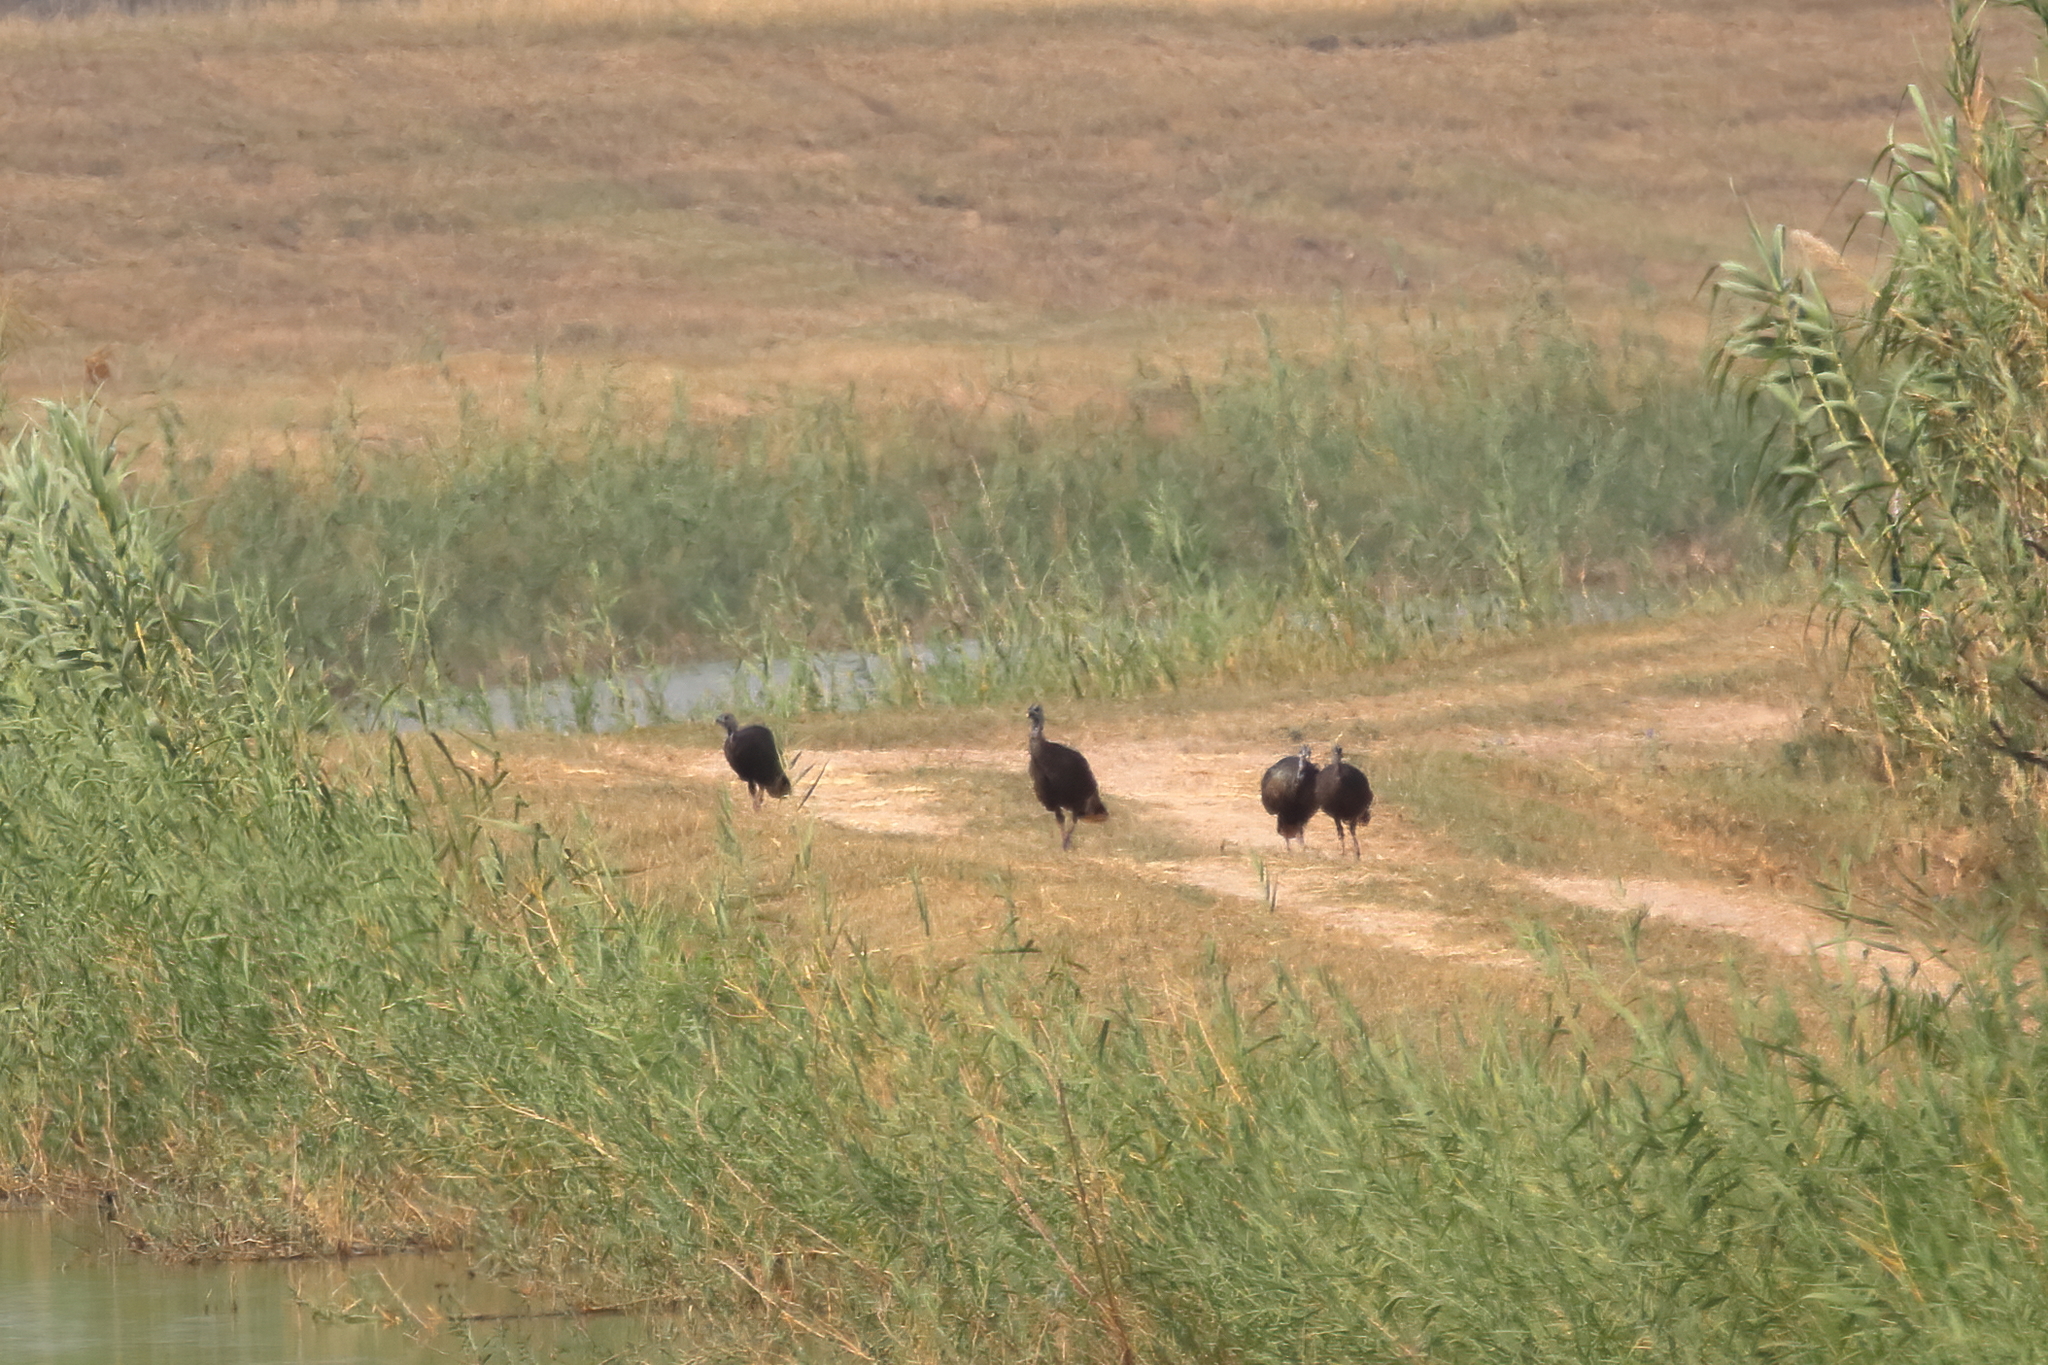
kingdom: Animalia
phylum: Chordata
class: Aves
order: Galliformes
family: Phasianidae
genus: Meleagris
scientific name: Meleagris gallopavo
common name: Wild turkey
